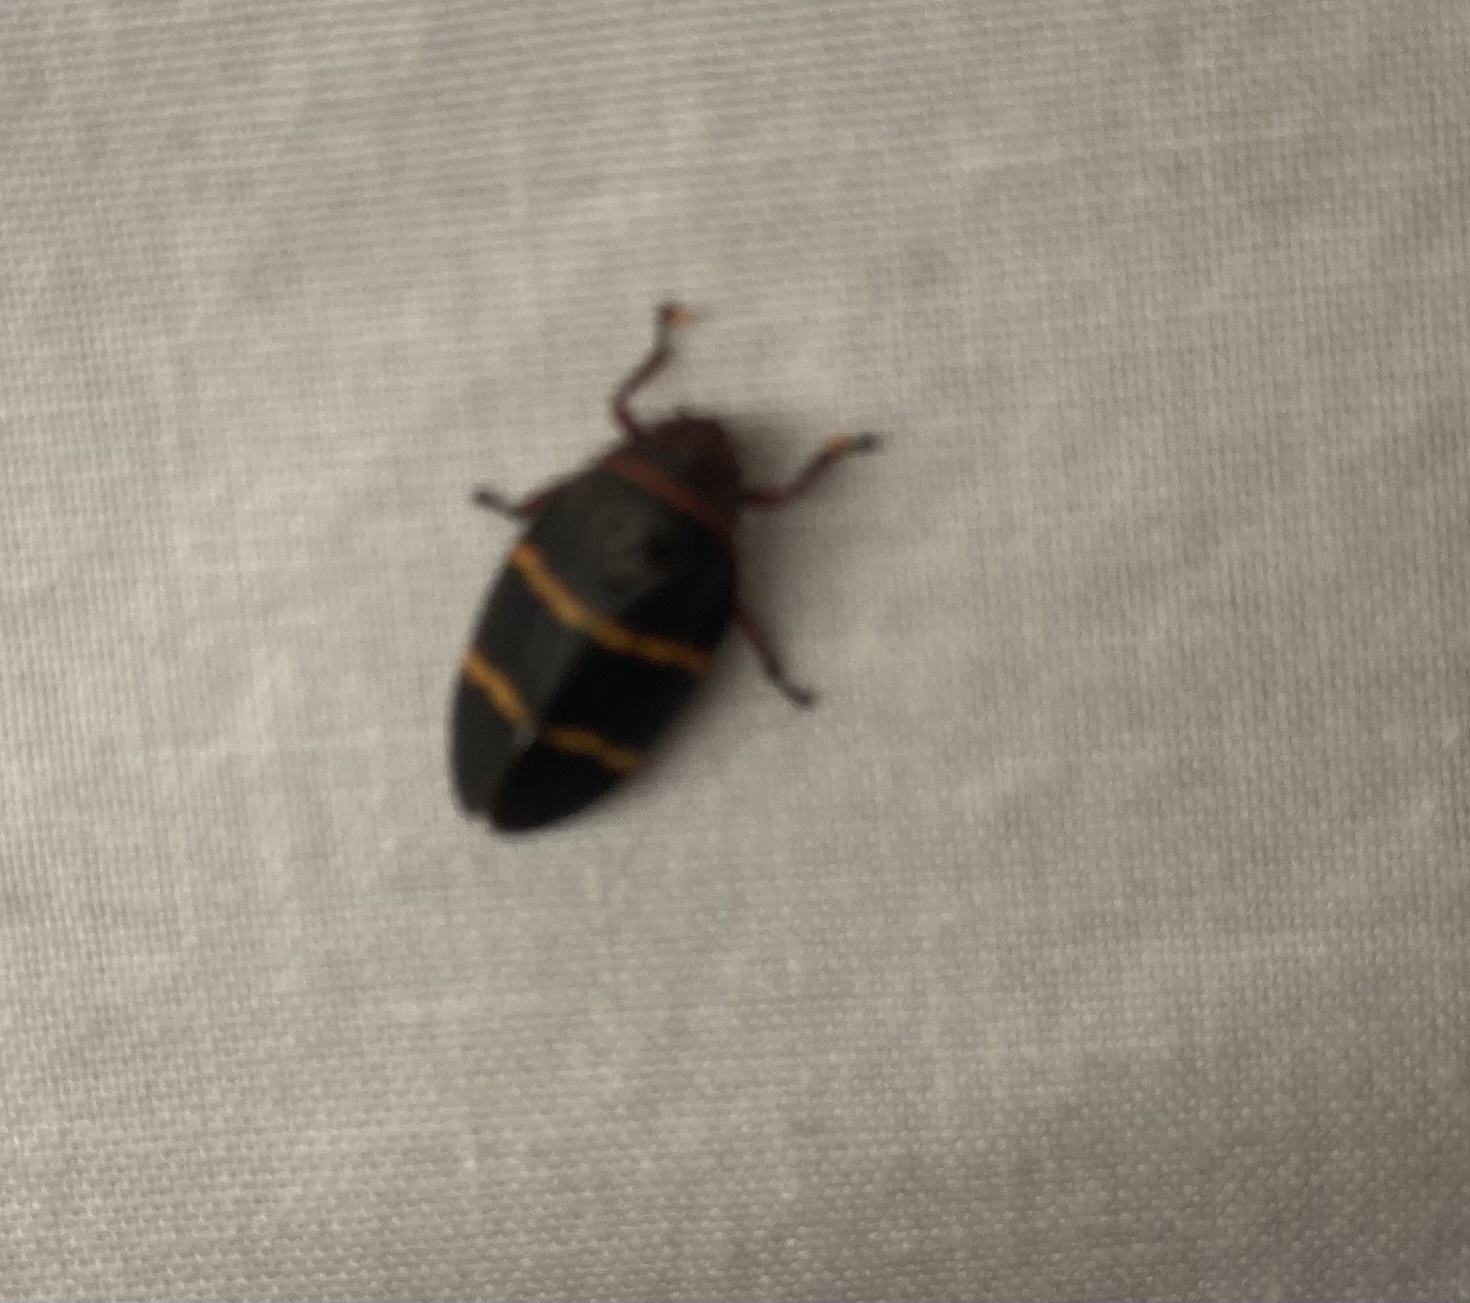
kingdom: Animalia
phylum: Arthropoda
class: Insecta
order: Hemiptera
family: Cercopidae
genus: Prosapia
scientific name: Prosapia bicincta
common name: Twolined spittlebug
